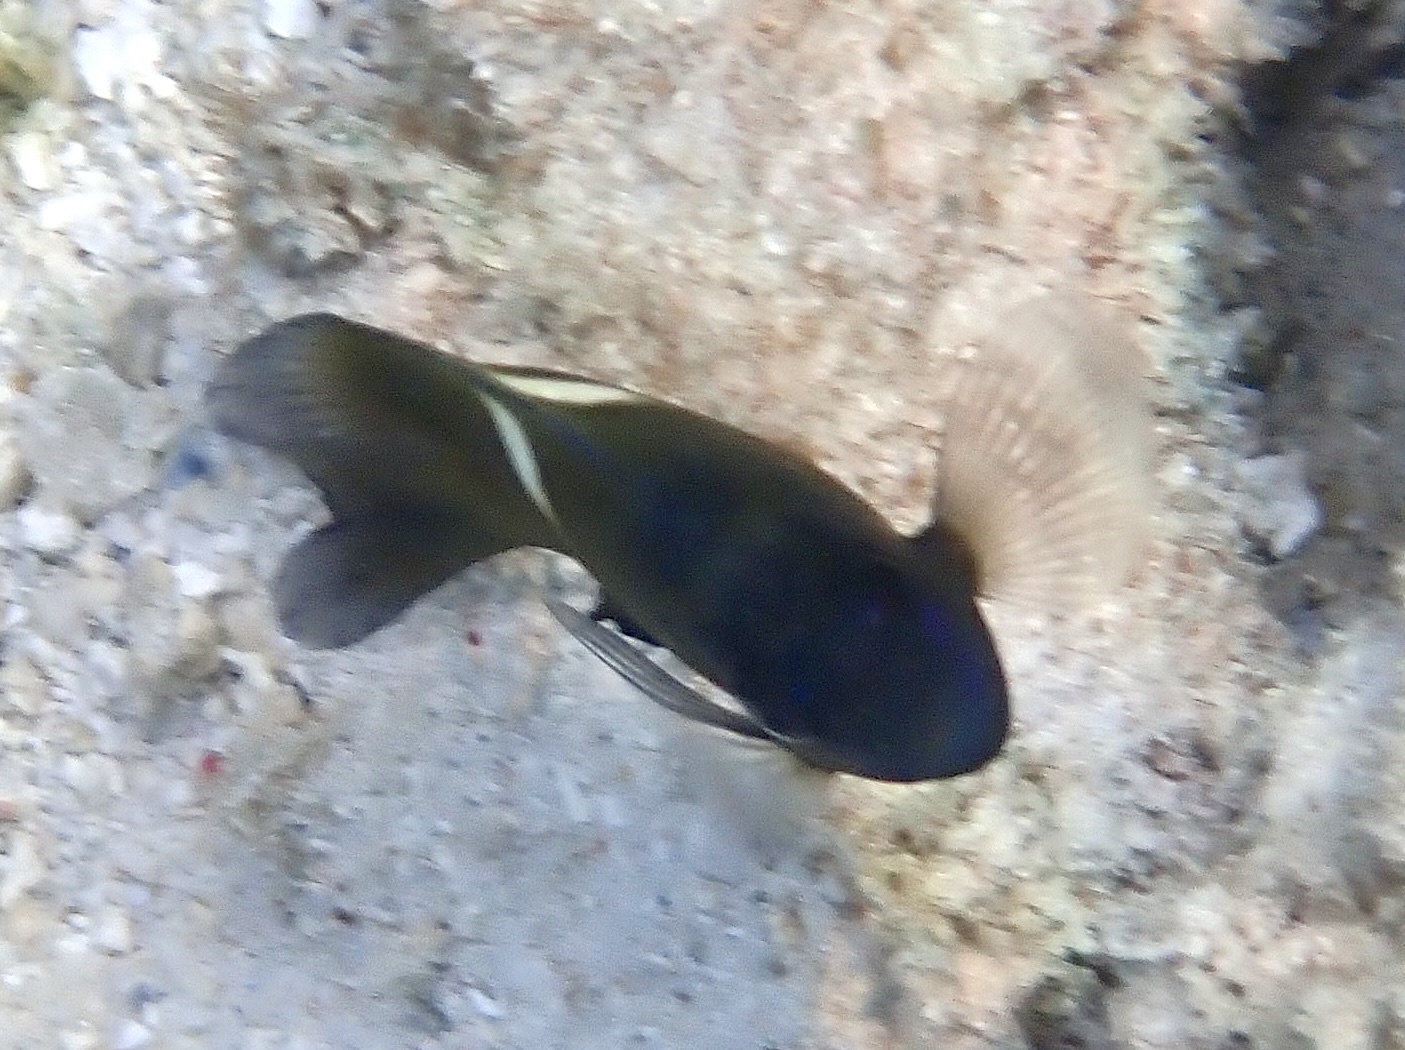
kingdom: Animalia
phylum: Chordata
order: Perciformes
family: Pomacentridae
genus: Dischistodus
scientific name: Dischistodus pseudochrysopoecilus
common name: Monarch damsel
